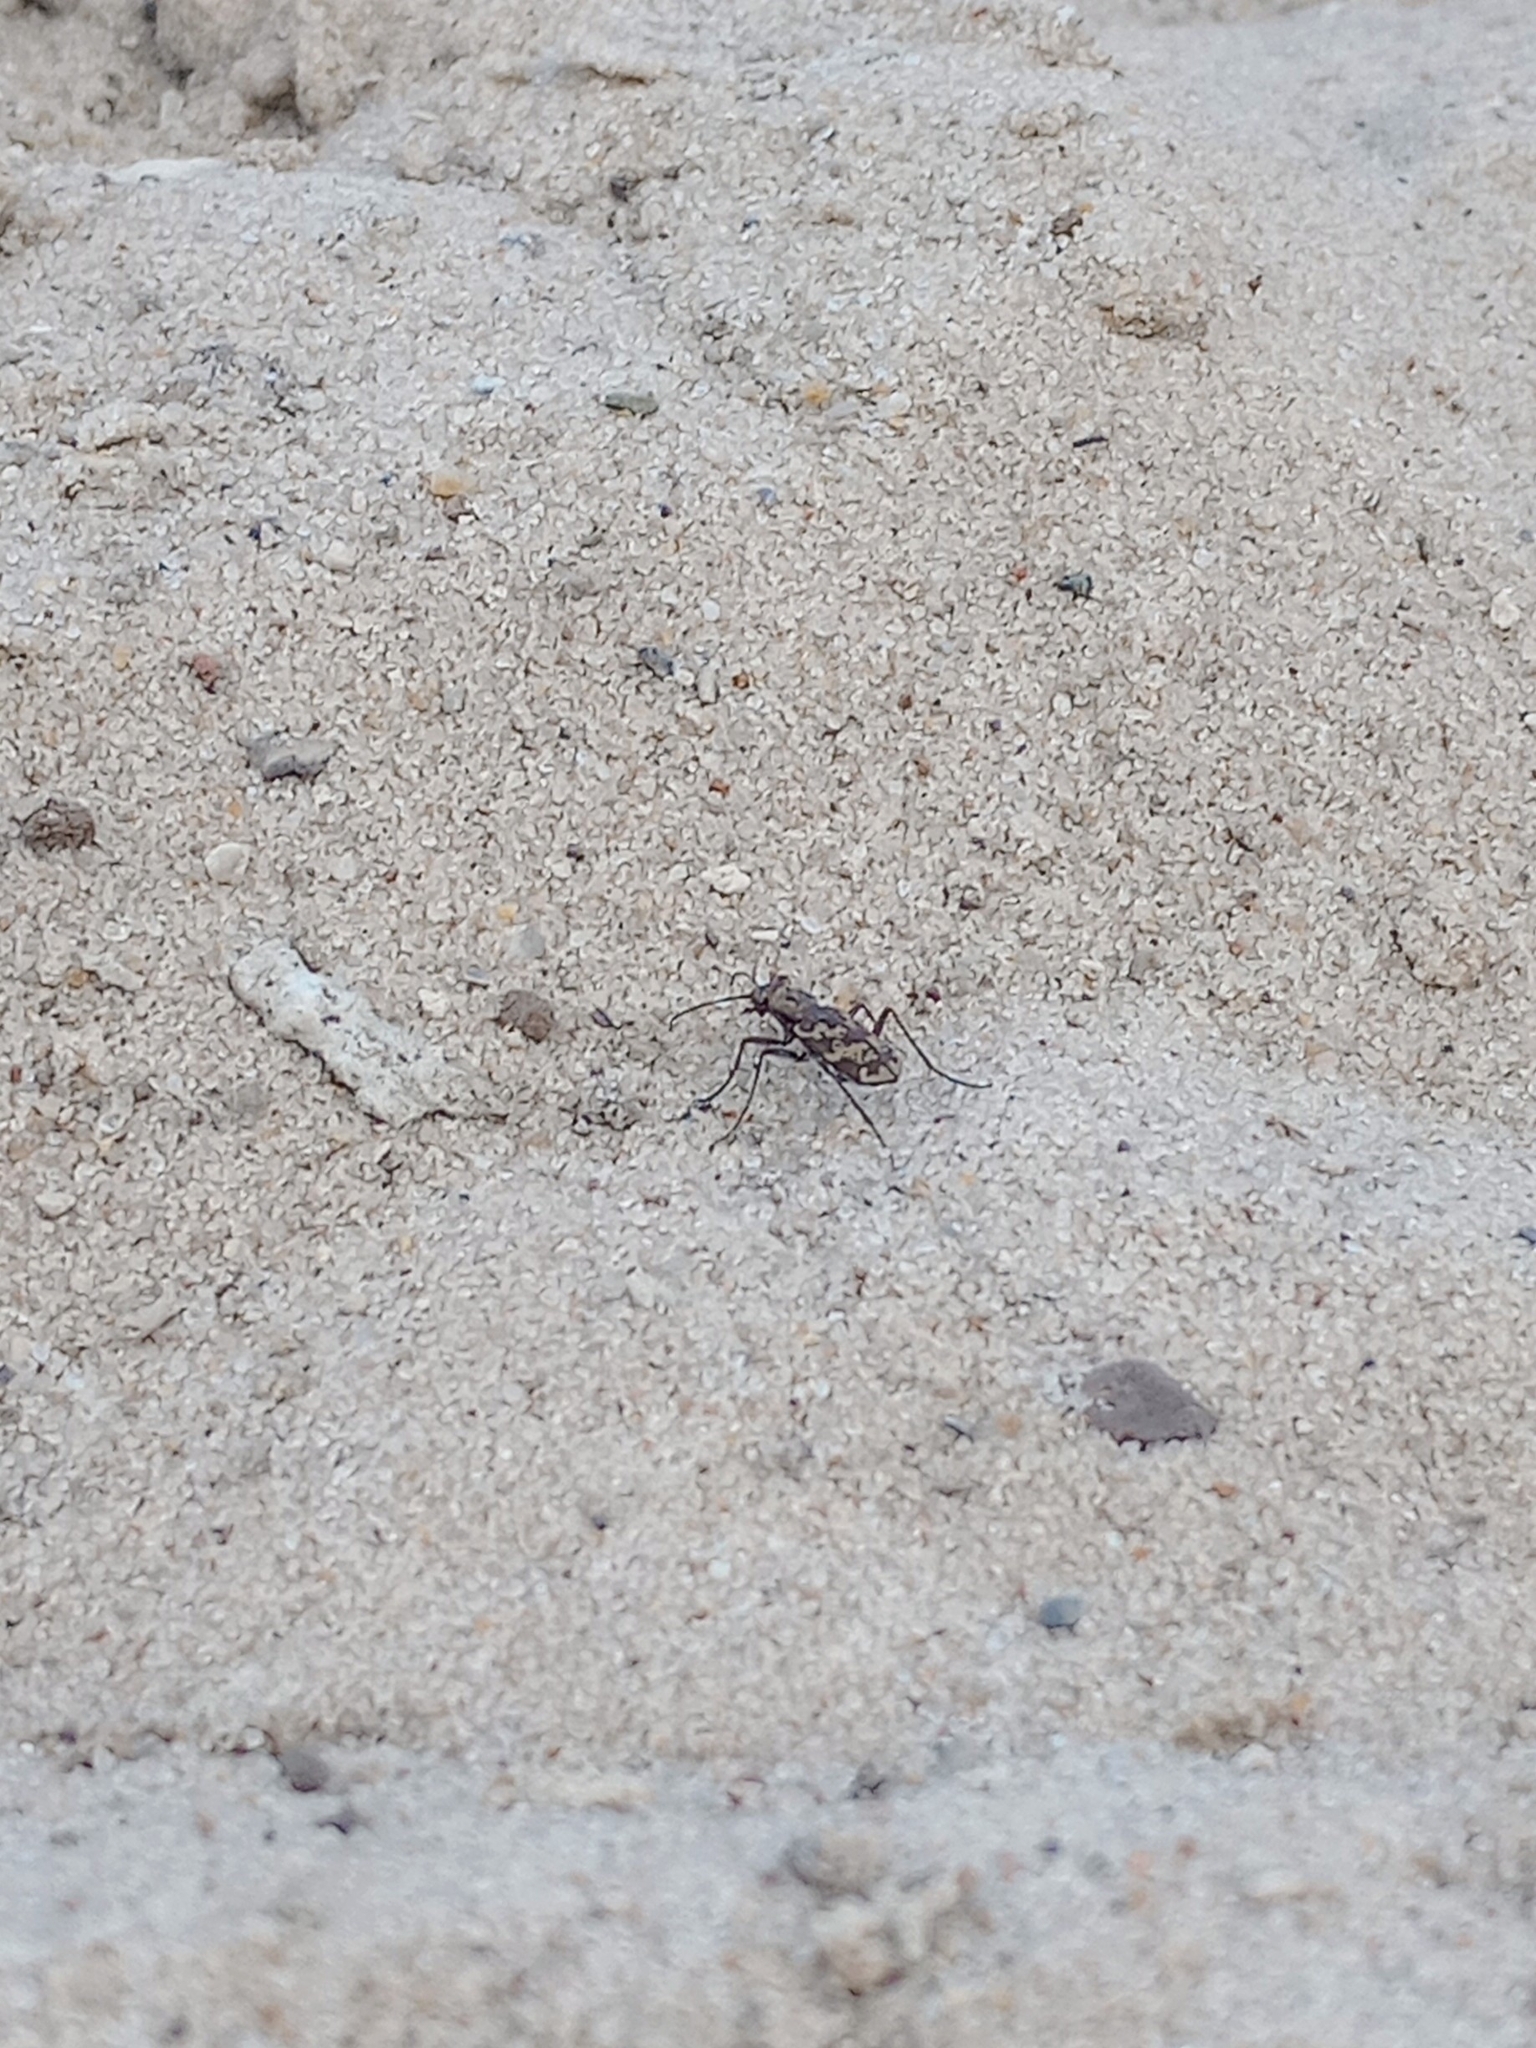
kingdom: Animalia
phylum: Arthropoda
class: Insecta
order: Coleoptera
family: Carabidae
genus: Cylindera
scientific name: Cylindera apiata
